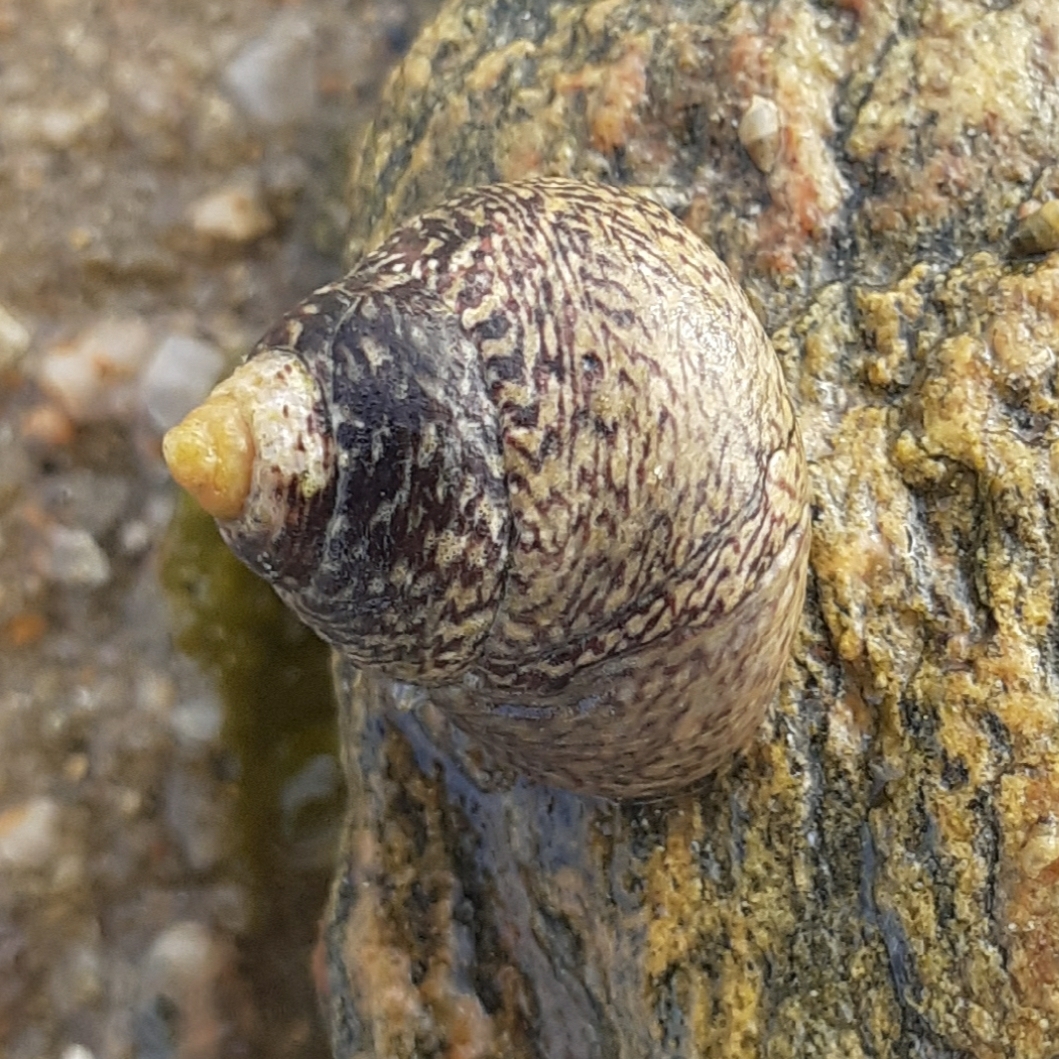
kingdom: Animalia
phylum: Mollusca
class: Gastropoda
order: Trochida
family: Trochidae
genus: Phorcus
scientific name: Phorcus lineatus
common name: Toothed top shell
